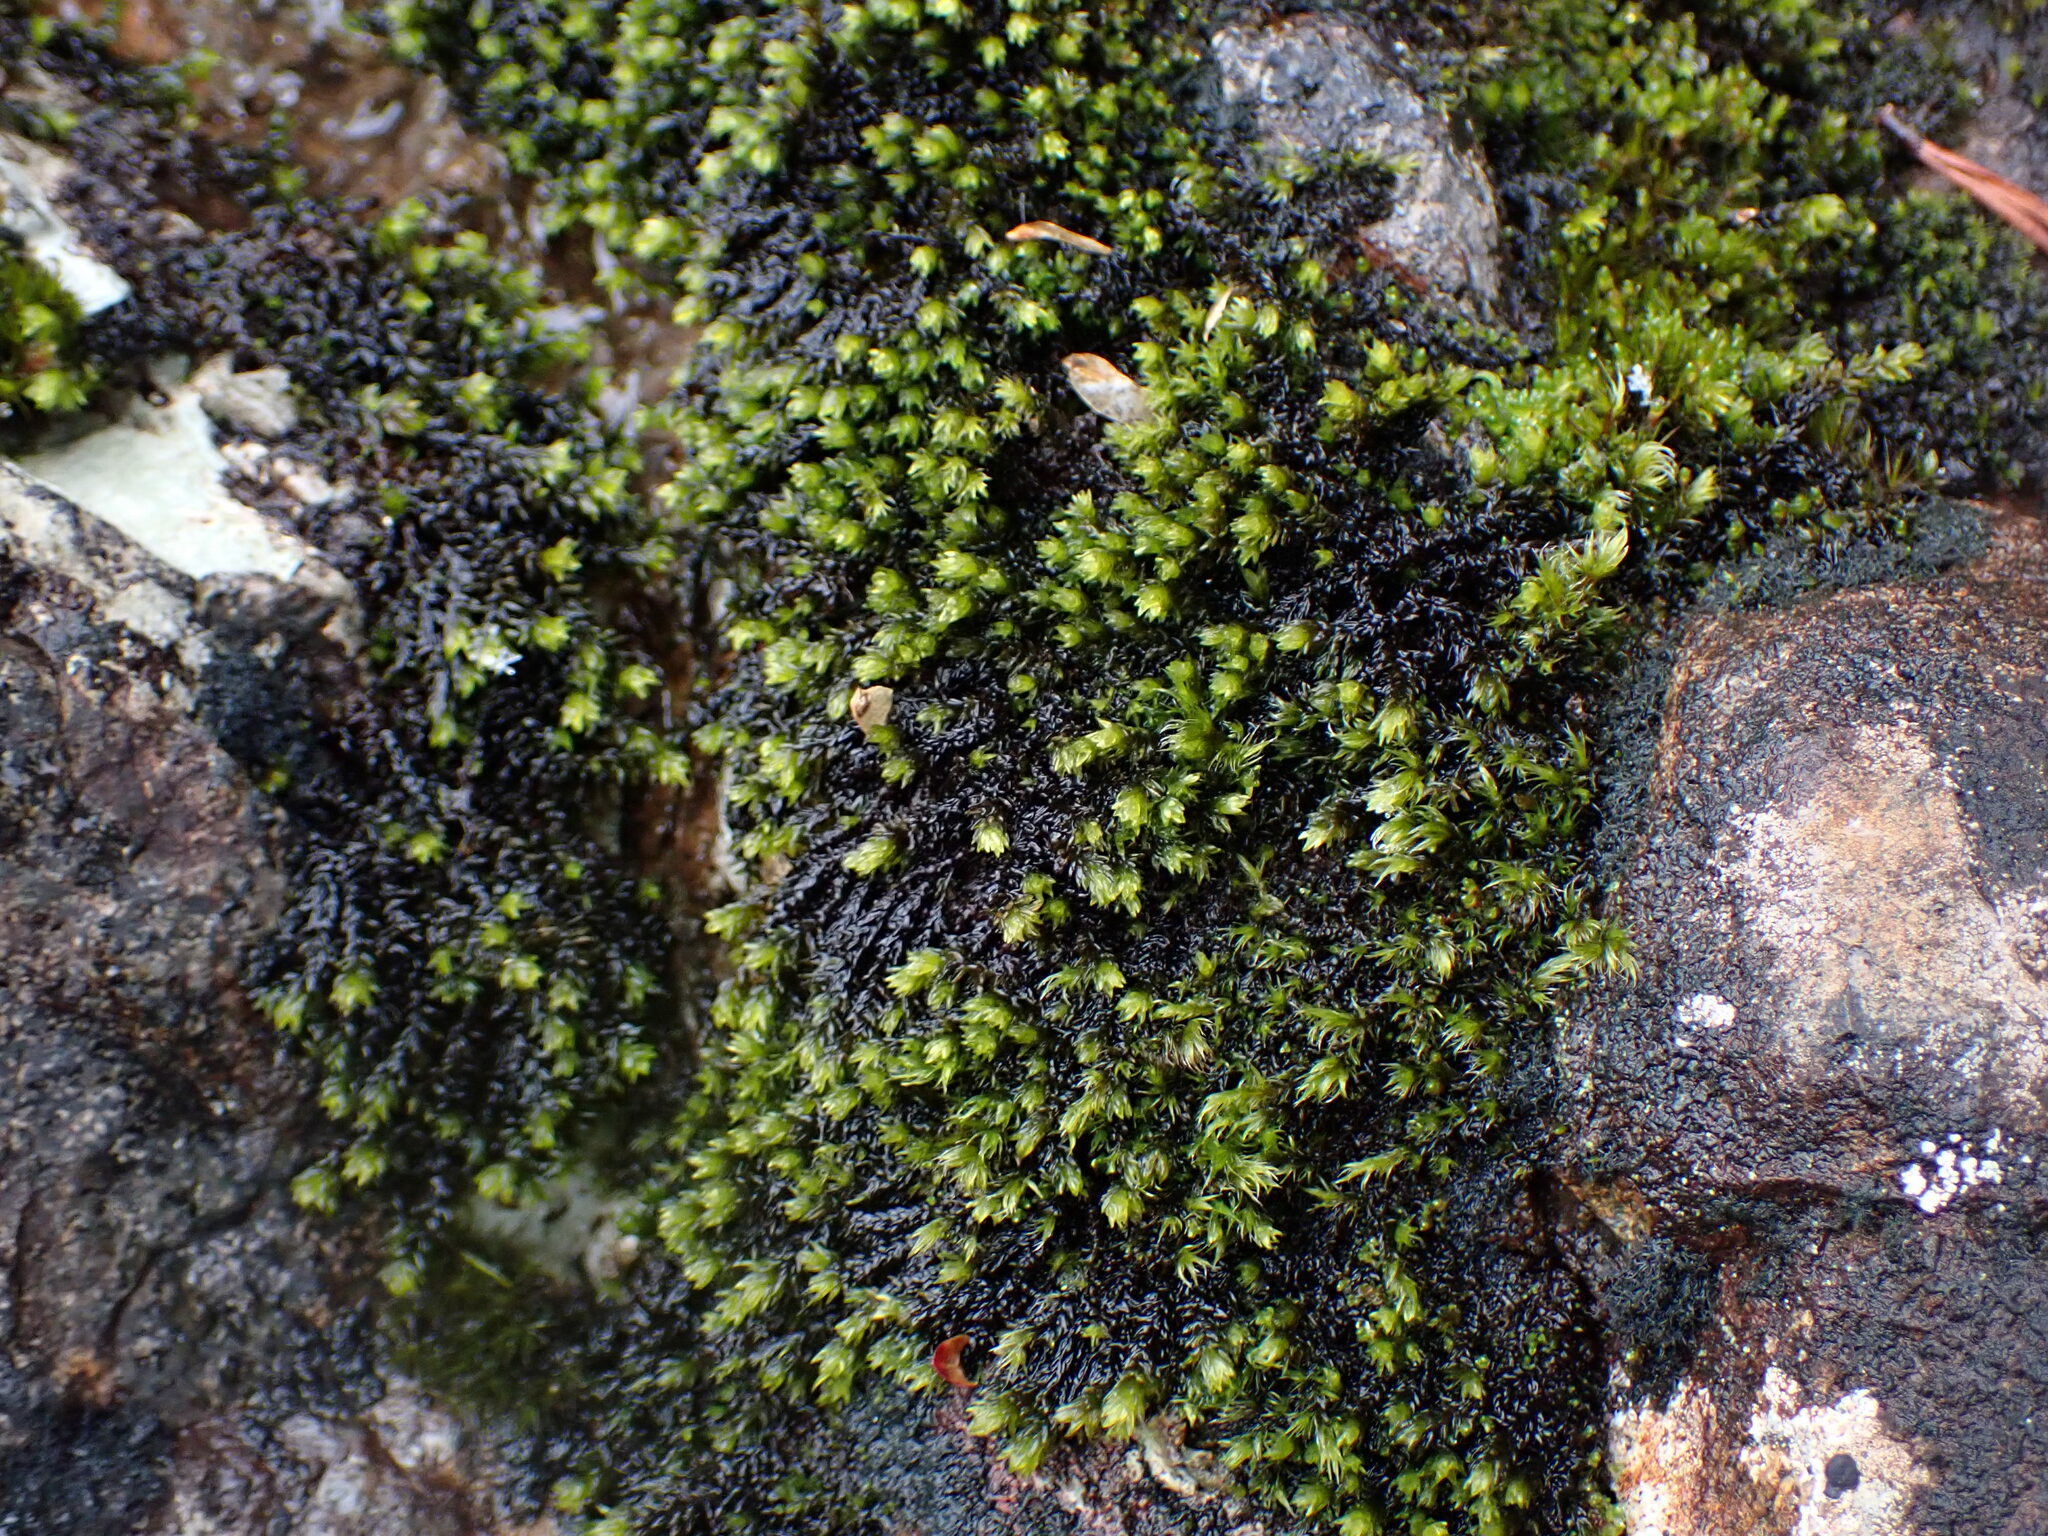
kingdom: Plantae
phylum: Bryophyta
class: Bryopsida
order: Grimmiales
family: Grimmiaceae
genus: Codriophorus
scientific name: Codriophorus acicularis
